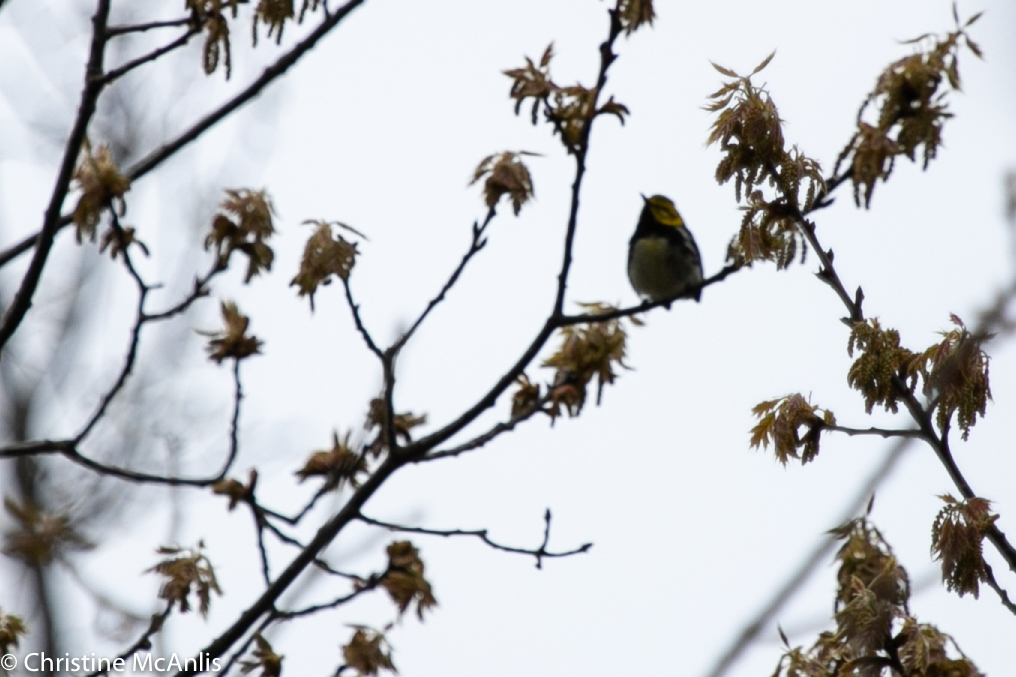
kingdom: Animalia
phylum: Chordata
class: Aves
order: Passeriformes
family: Parulidae
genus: Setophaga
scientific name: Setophaga virens
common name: Black-throated green warbler
